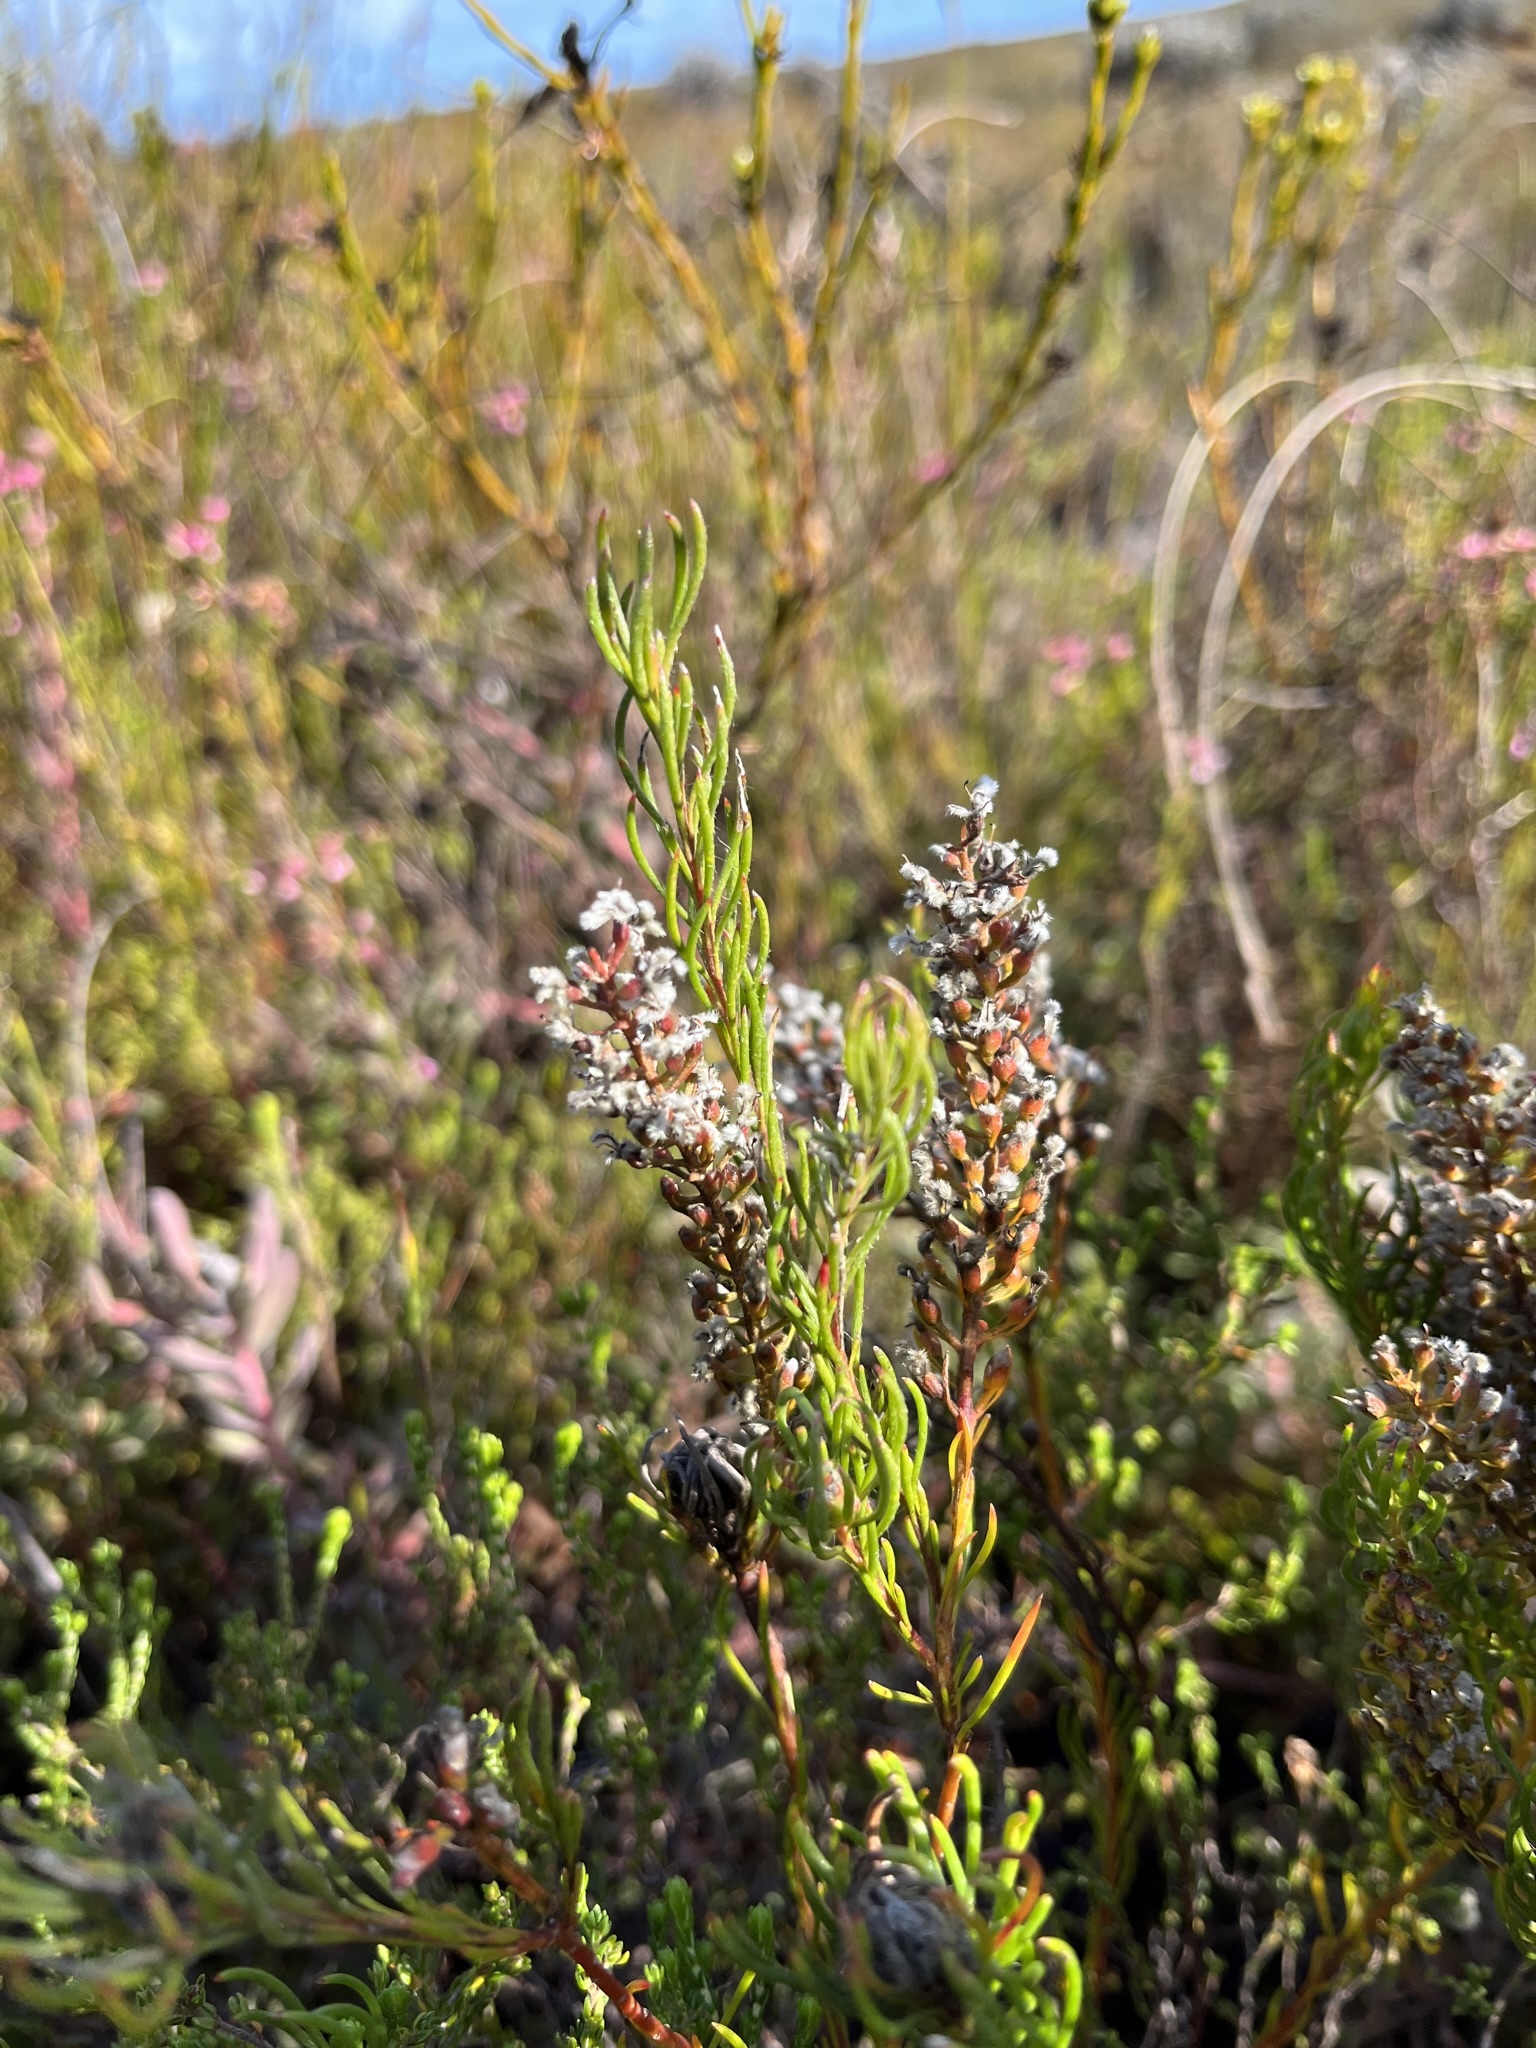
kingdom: Plantae
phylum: Tracheophyta
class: Magnoliopsida
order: Proteales
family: Proteaceae
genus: Spatalla
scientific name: Spatalla curvifolia
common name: White-stalked spoon
